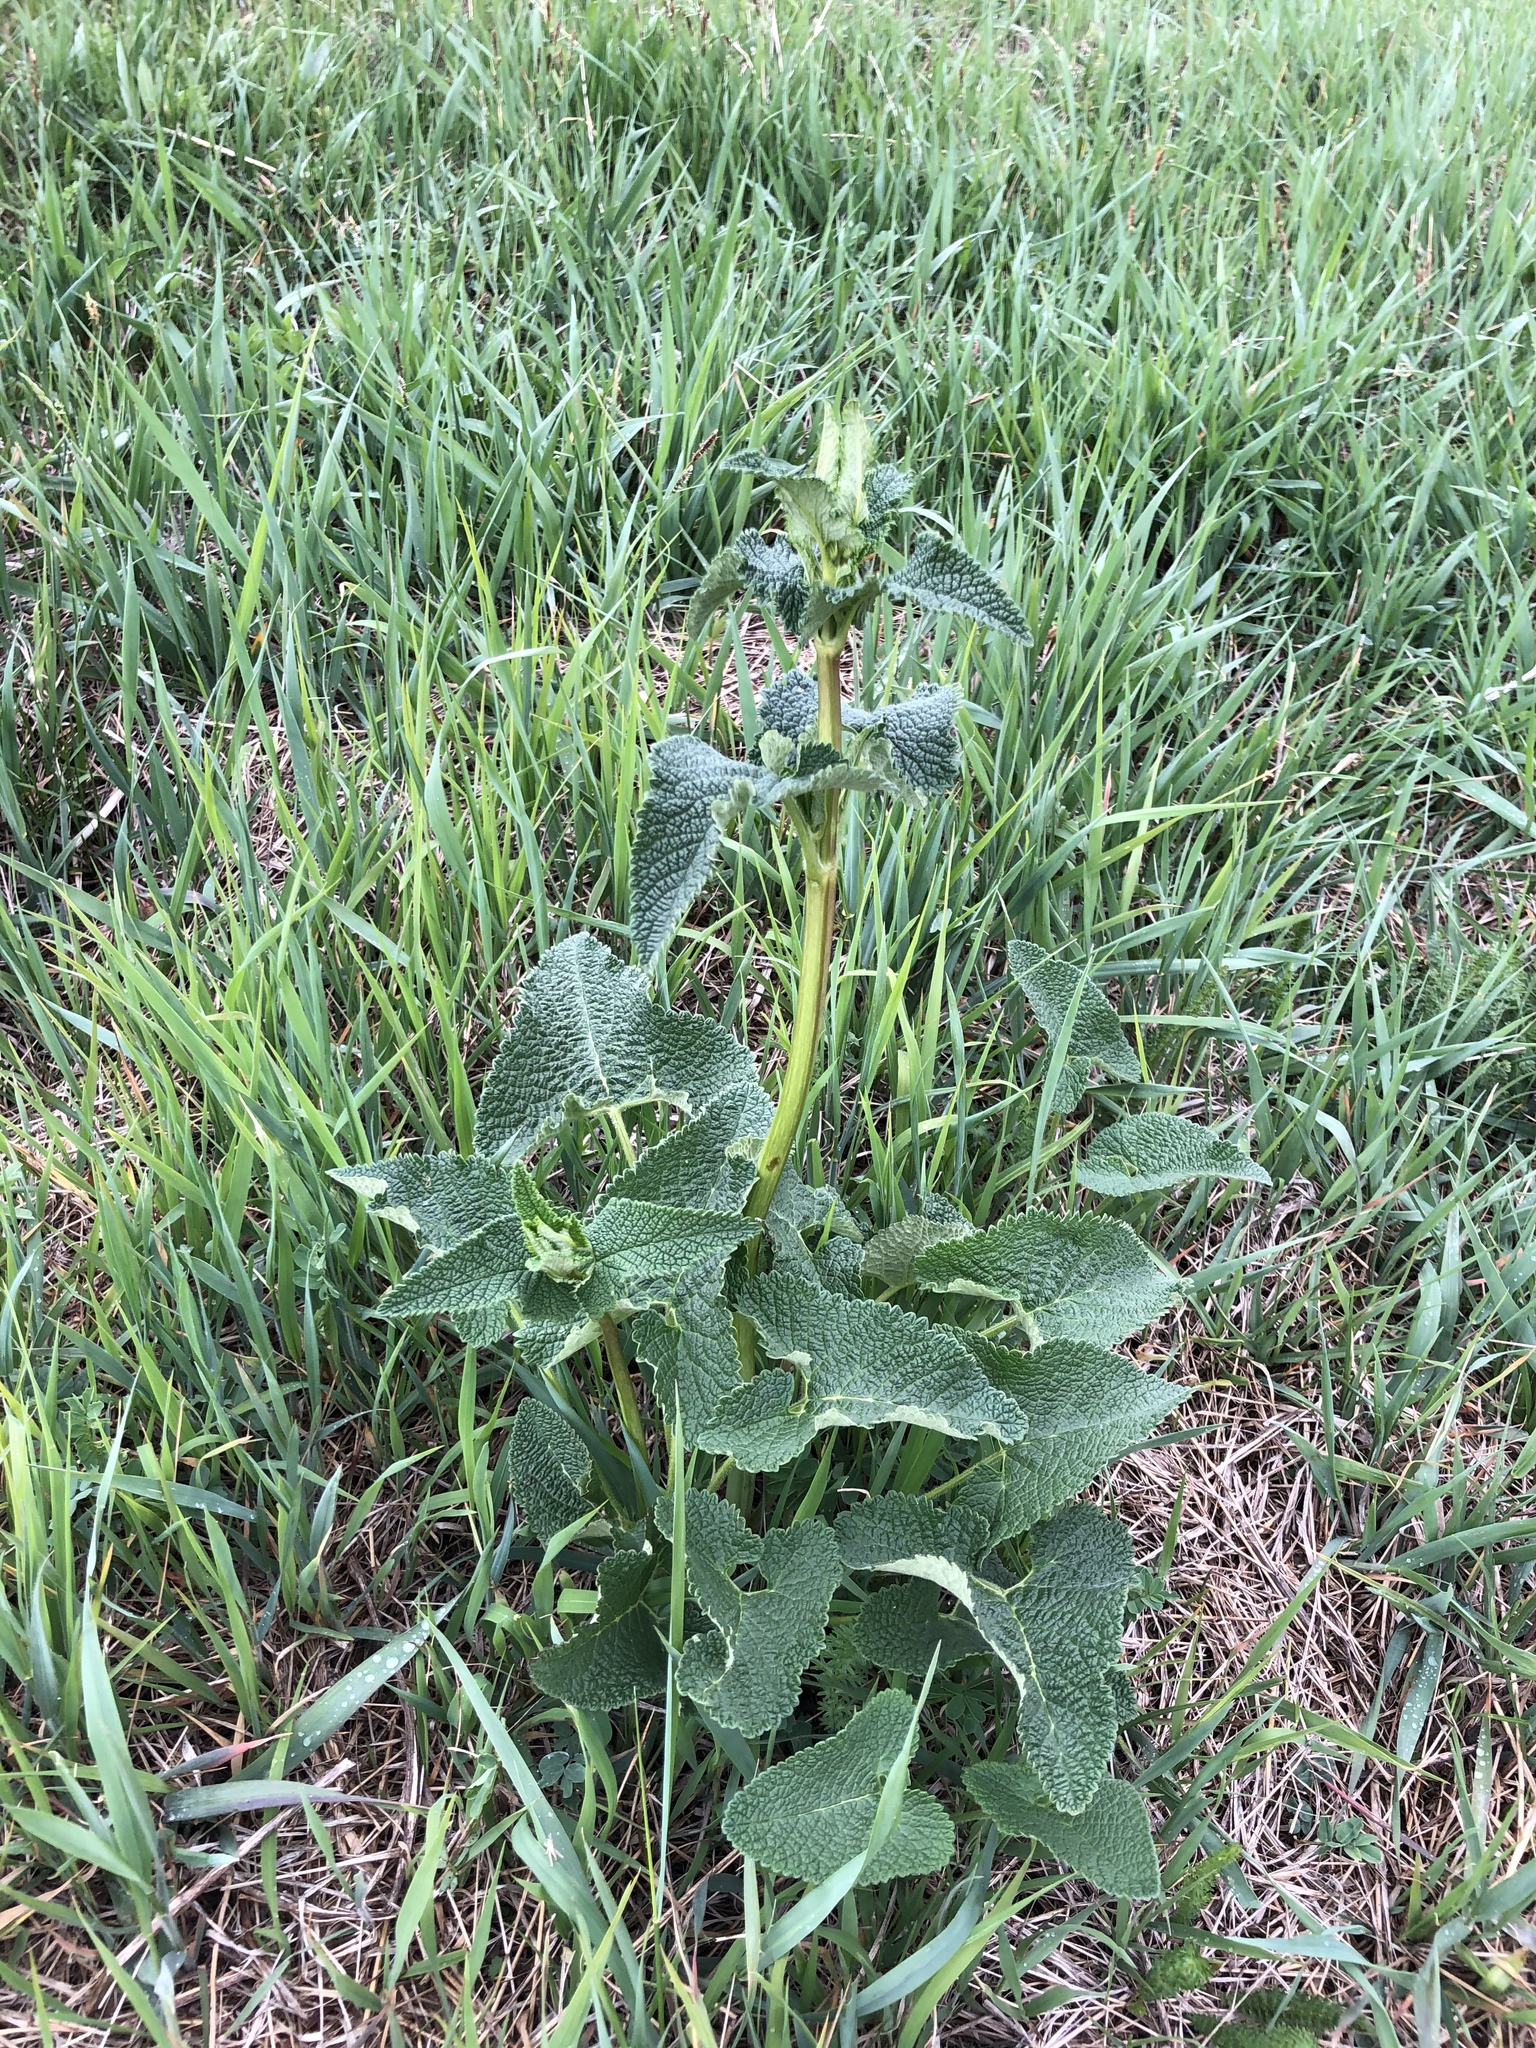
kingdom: Plantae
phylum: Tracheophyta
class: Magnoliopsida
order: Lamiales
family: Lamiaceae
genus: Phlomoides
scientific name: Phlomoides tuberosa
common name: Tuberous jerusalem sage
